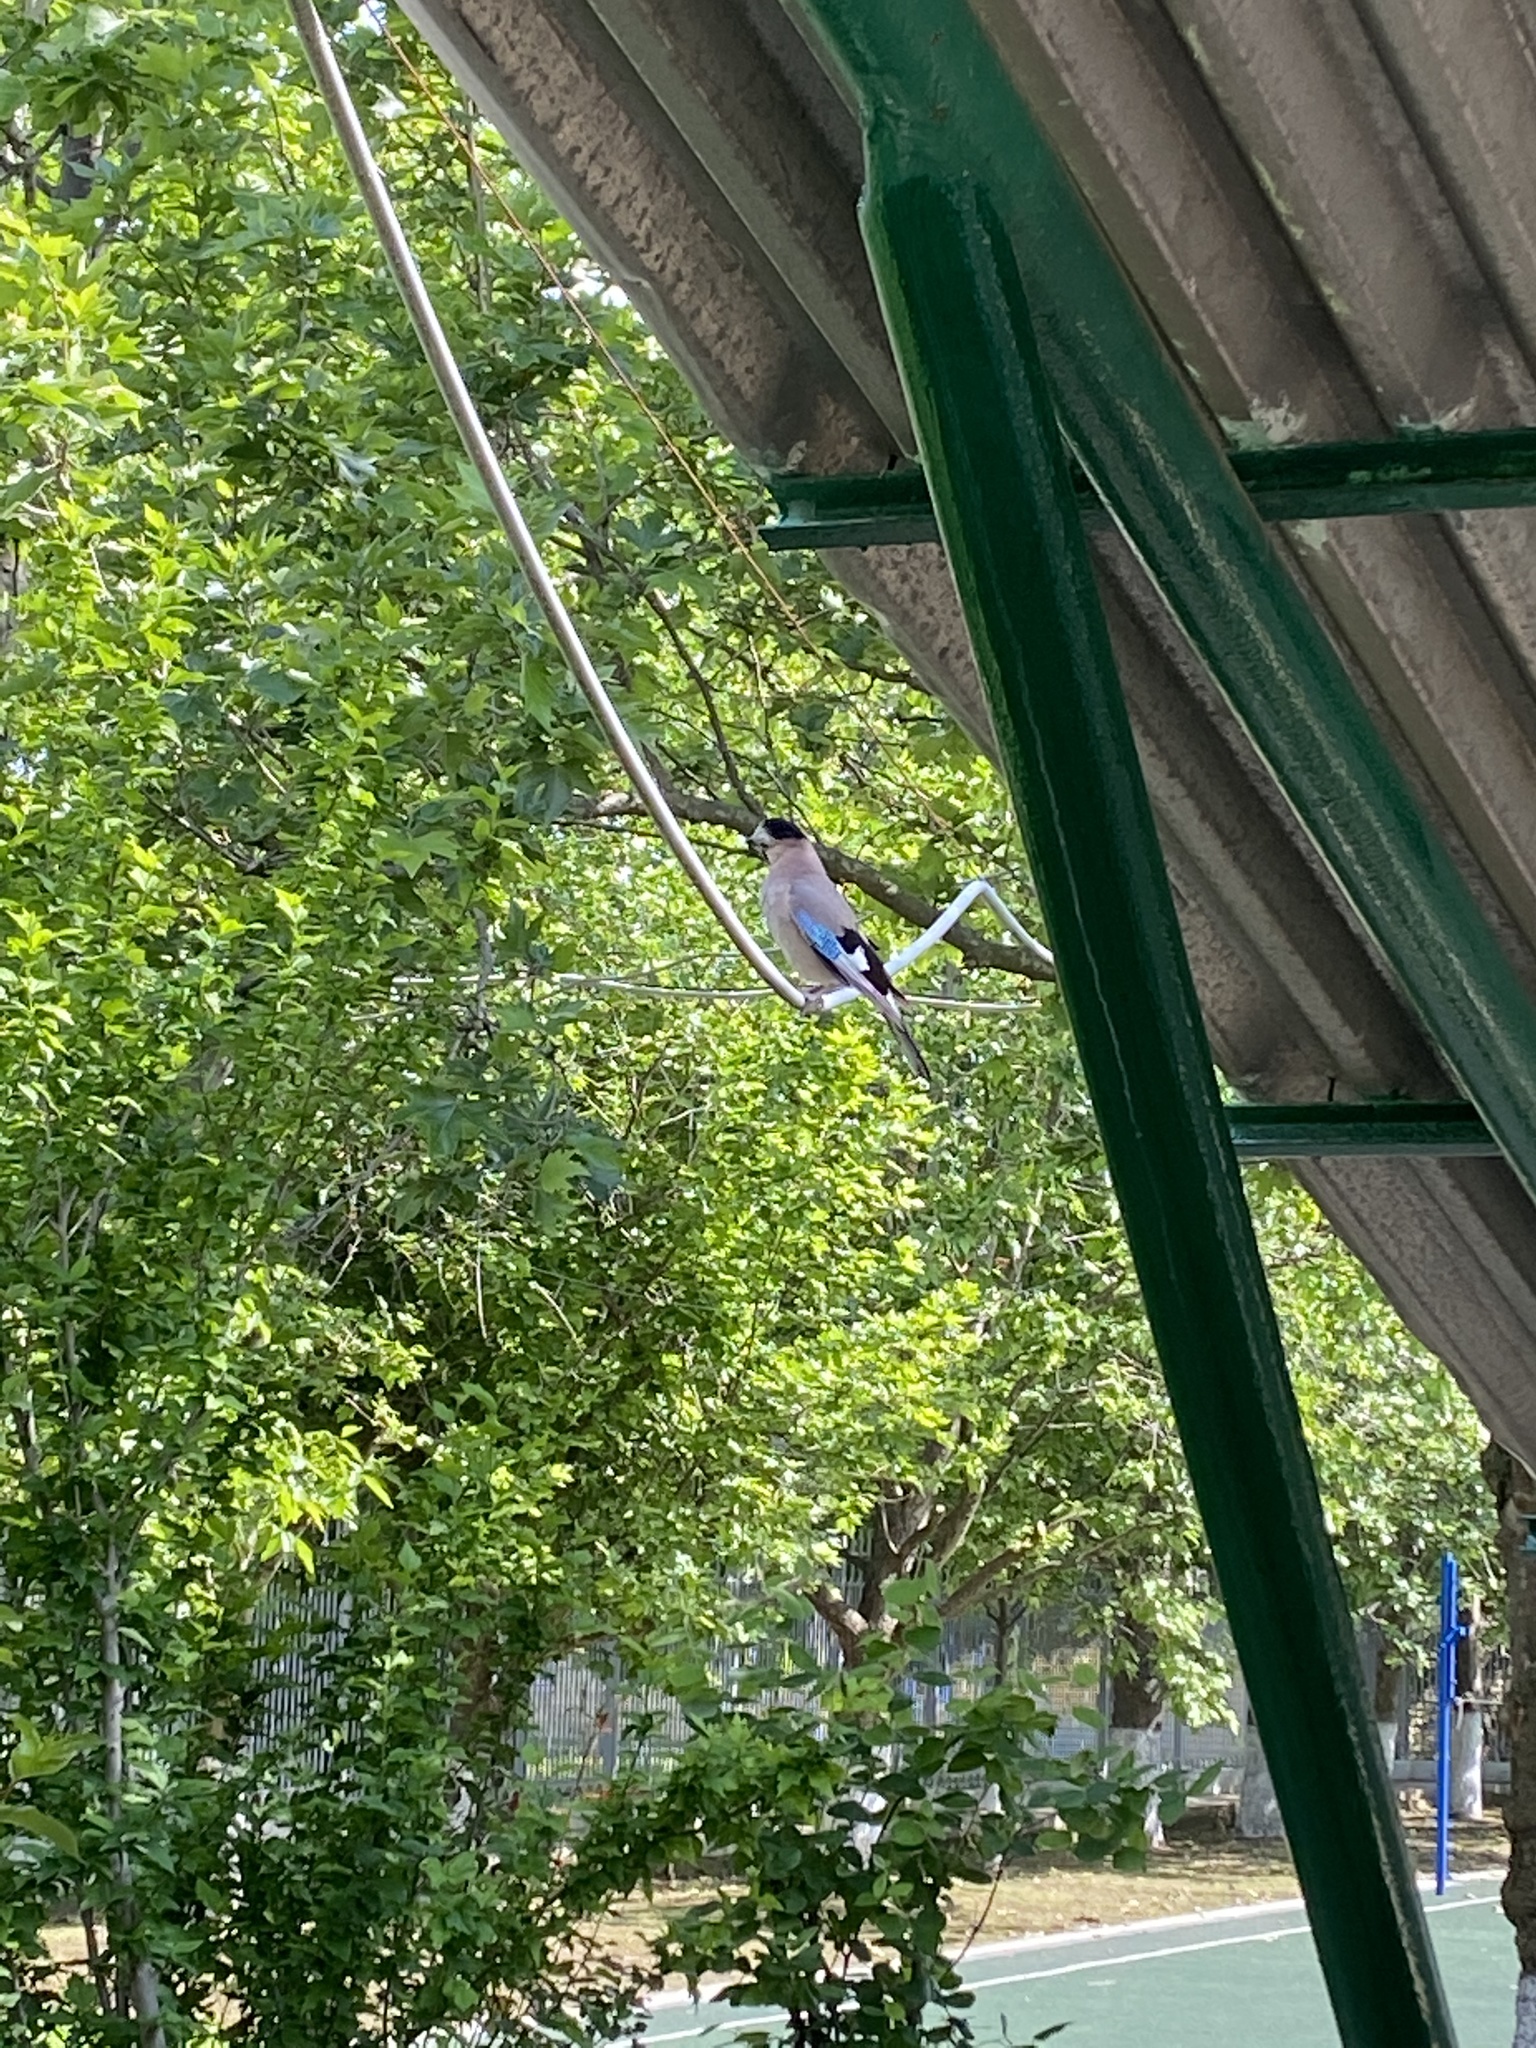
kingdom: Animalia
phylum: Chordata
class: Aves
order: Passeriformes
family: Corvidae
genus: Garrulus
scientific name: Garrulus glandarius
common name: Eurasian jay
